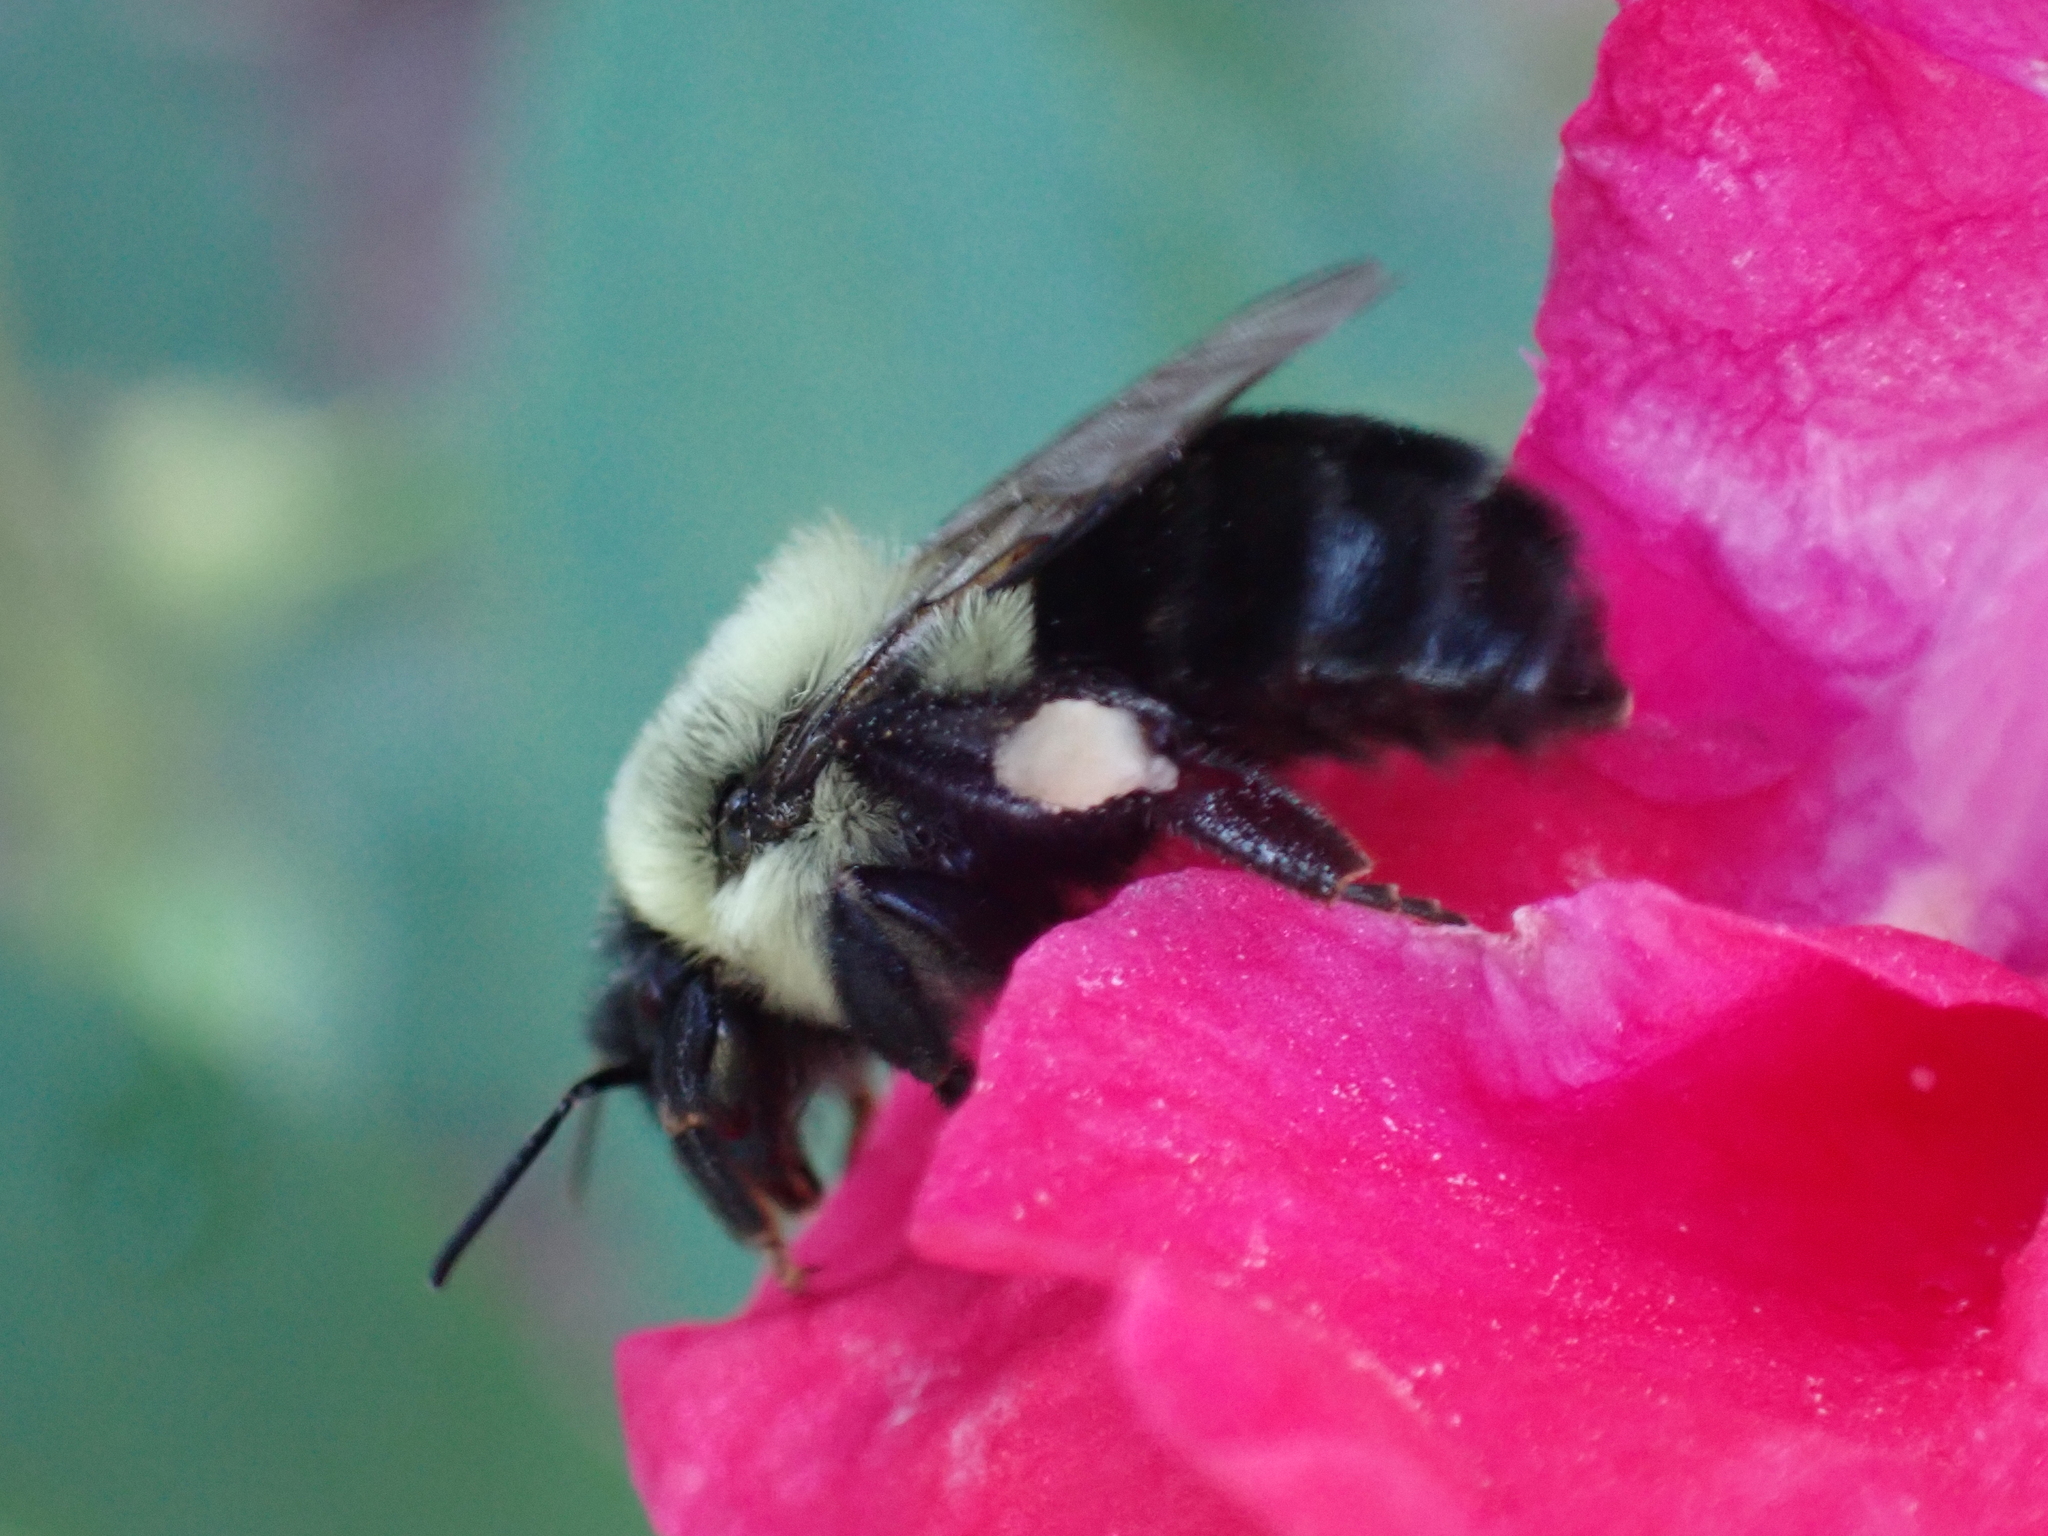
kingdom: Animalia
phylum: Arthropoda
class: Insecta
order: Hymenoptera
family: Apidae
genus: Bombus
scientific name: Bombus impatiens
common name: Common eastern bumble bee
